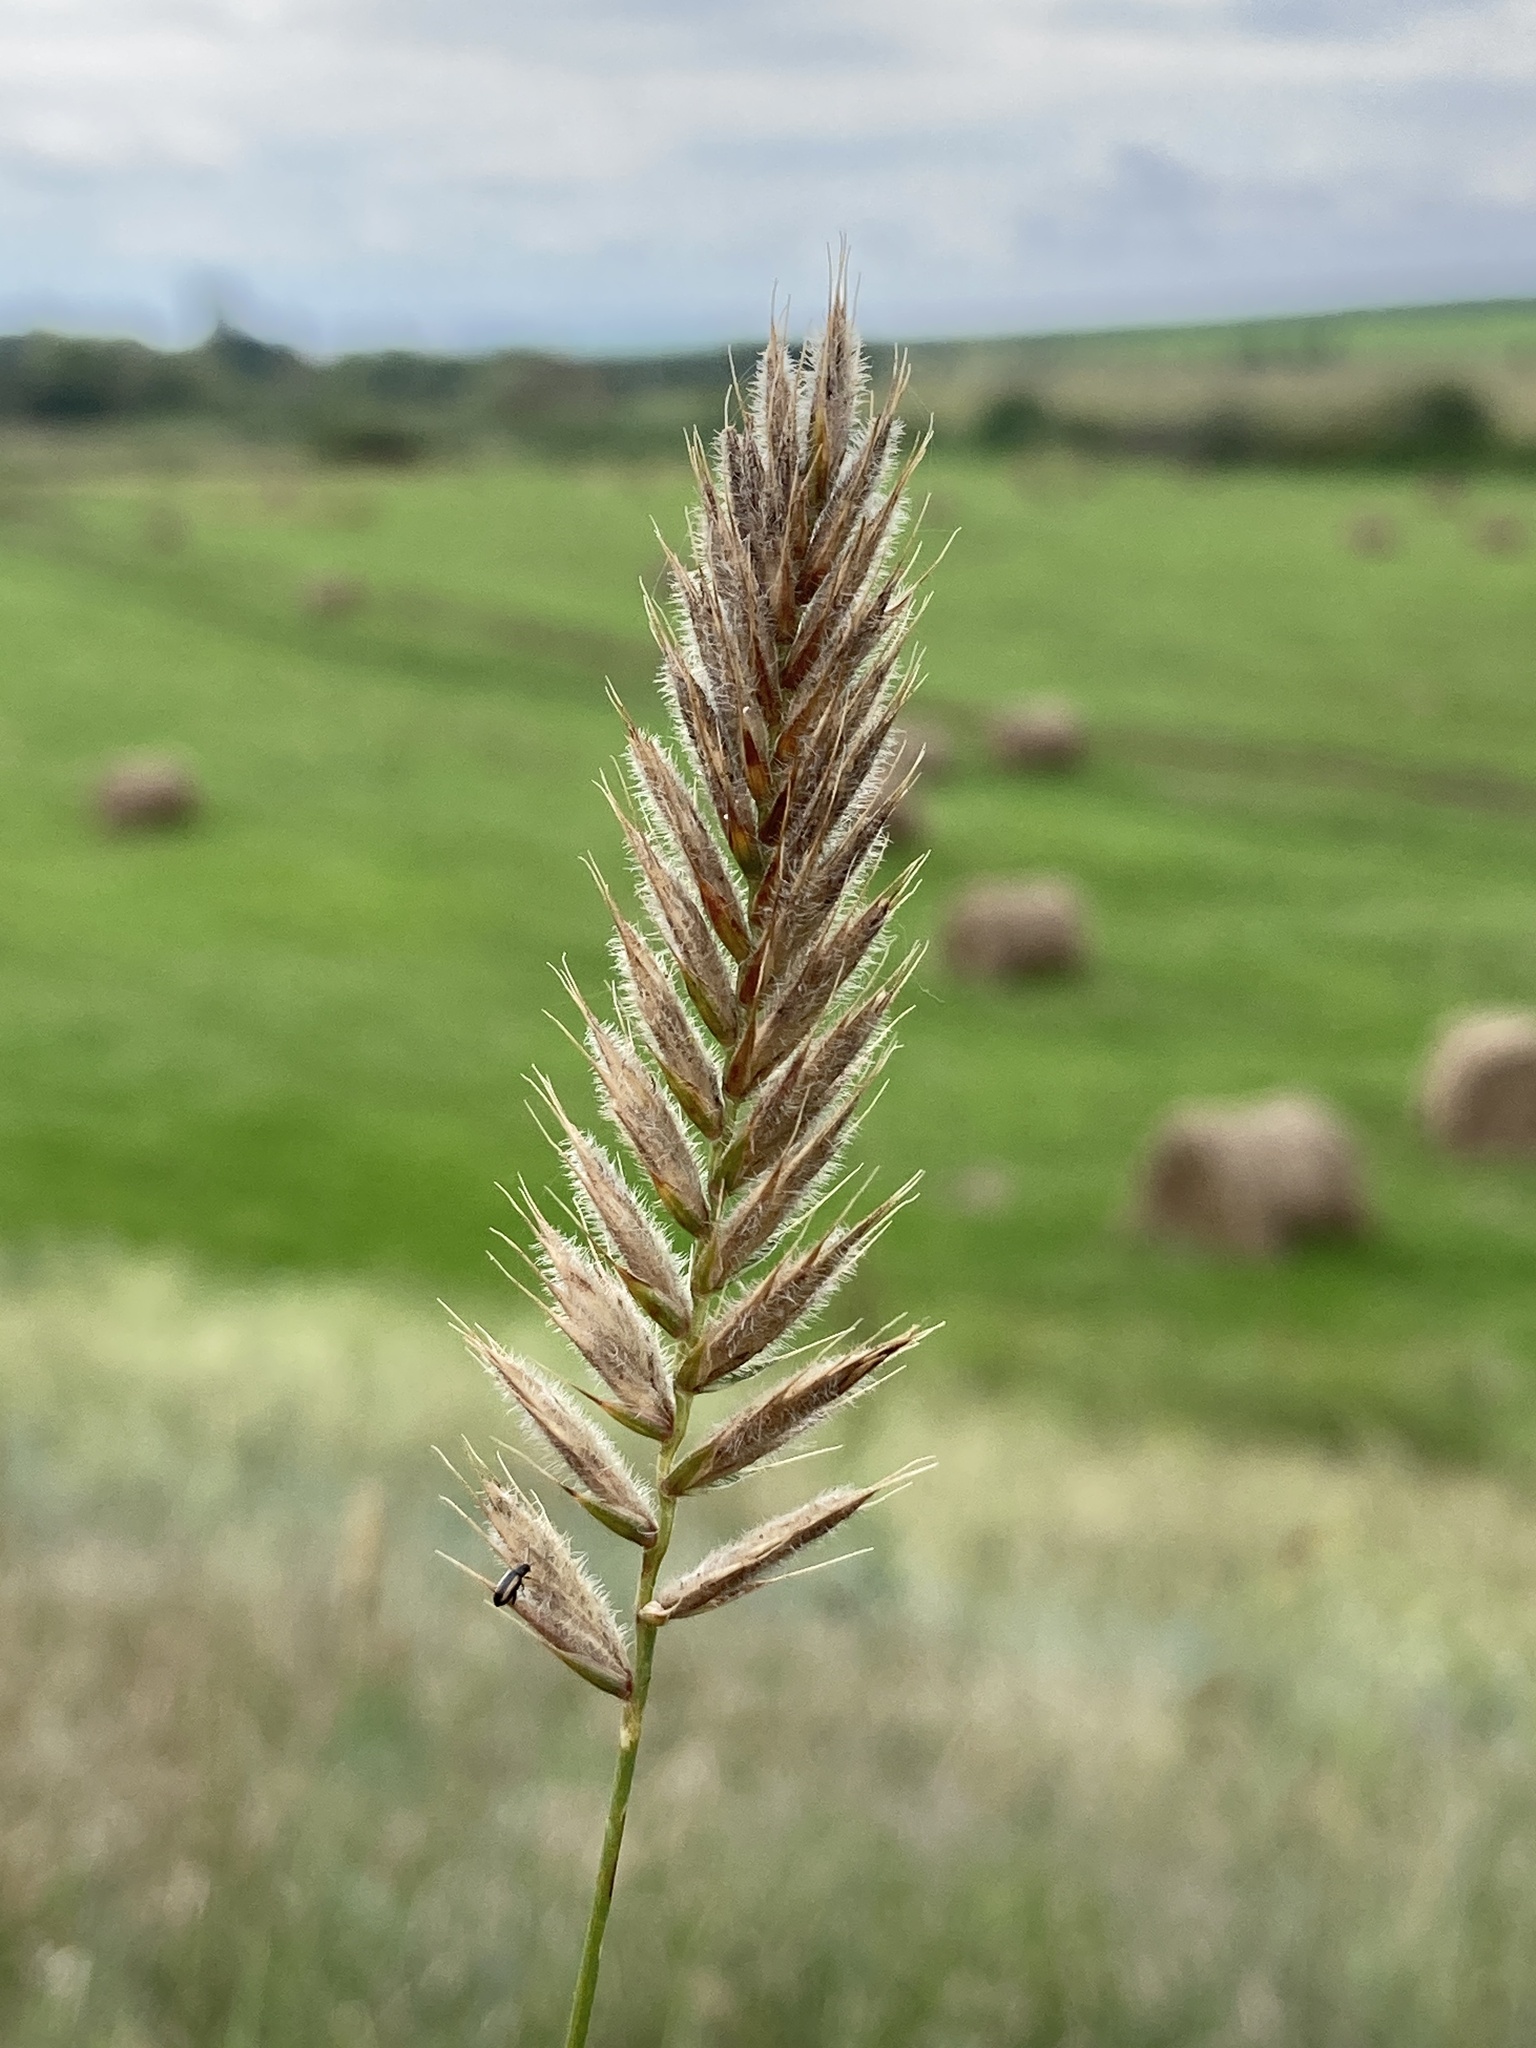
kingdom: Plantae
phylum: Tracheophyta
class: Liliopsida
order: Poales
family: Poaceae
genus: Agropyron
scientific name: Agropyron cristatum
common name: Crested wheatgrass
